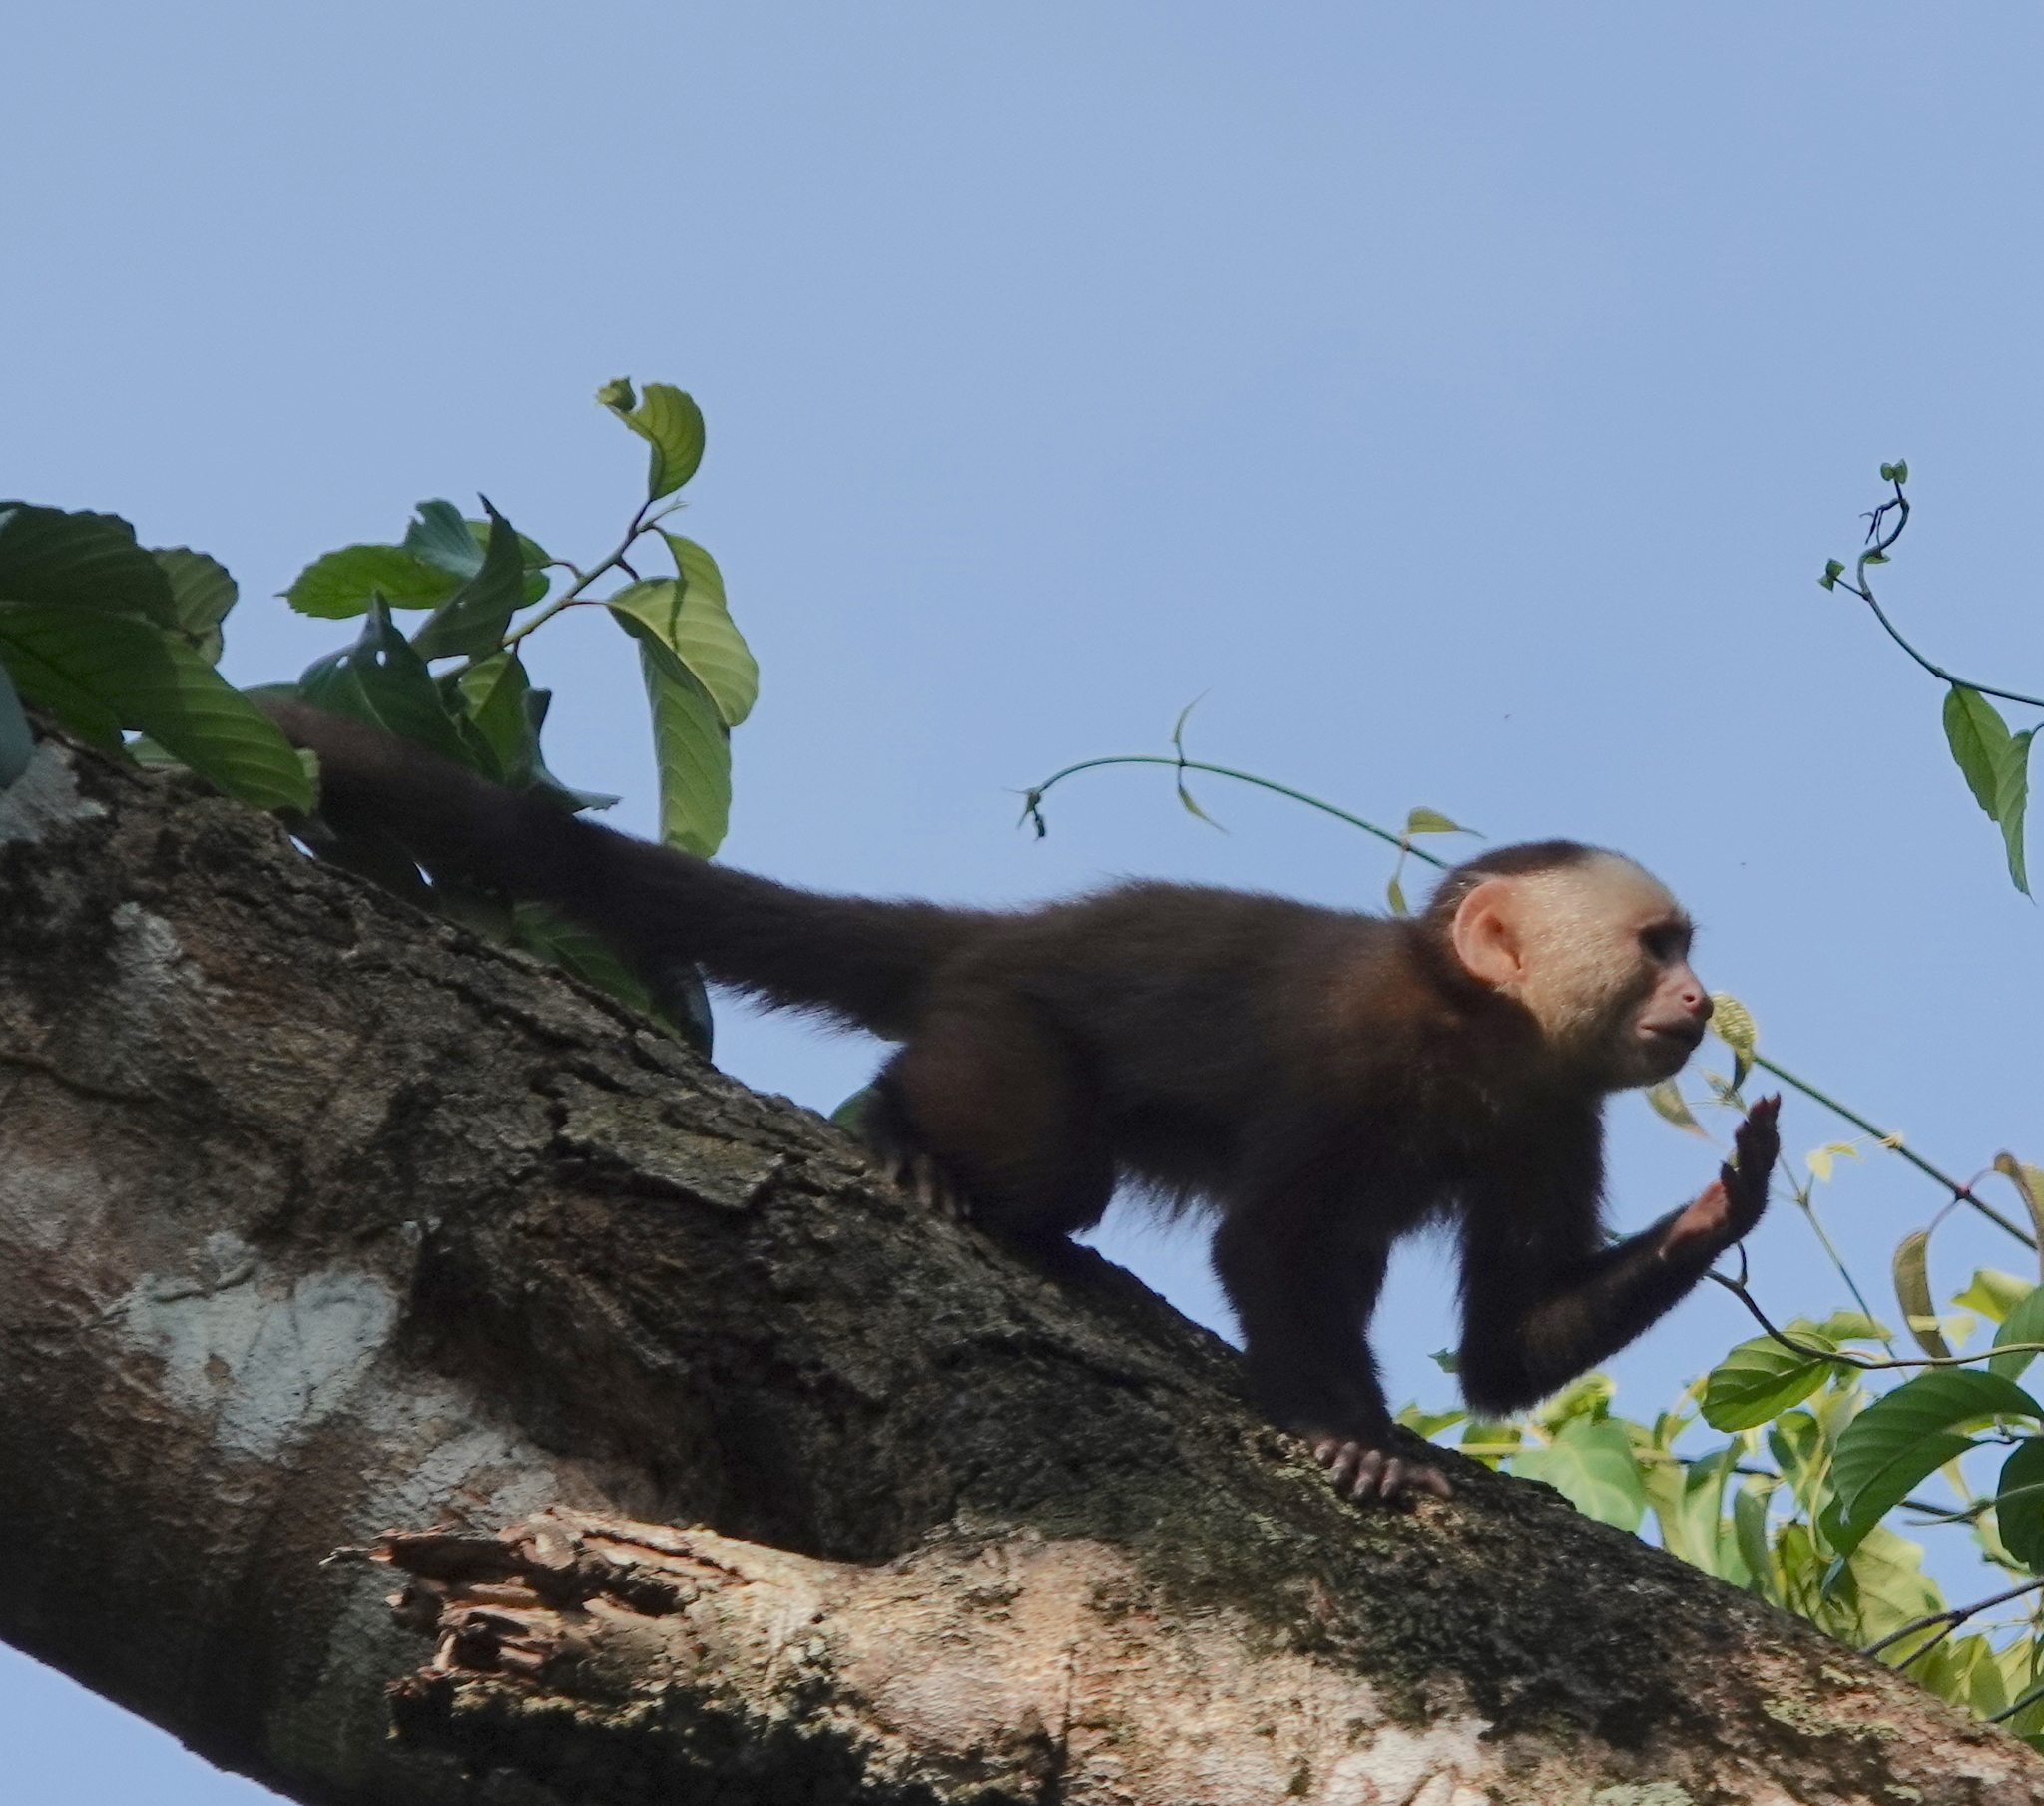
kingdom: Animalia
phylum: Chordata
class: Mammalia
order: Primates
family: Cebidae
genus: Cebus
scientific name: Cebus versicolor
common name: Varied capuchin
